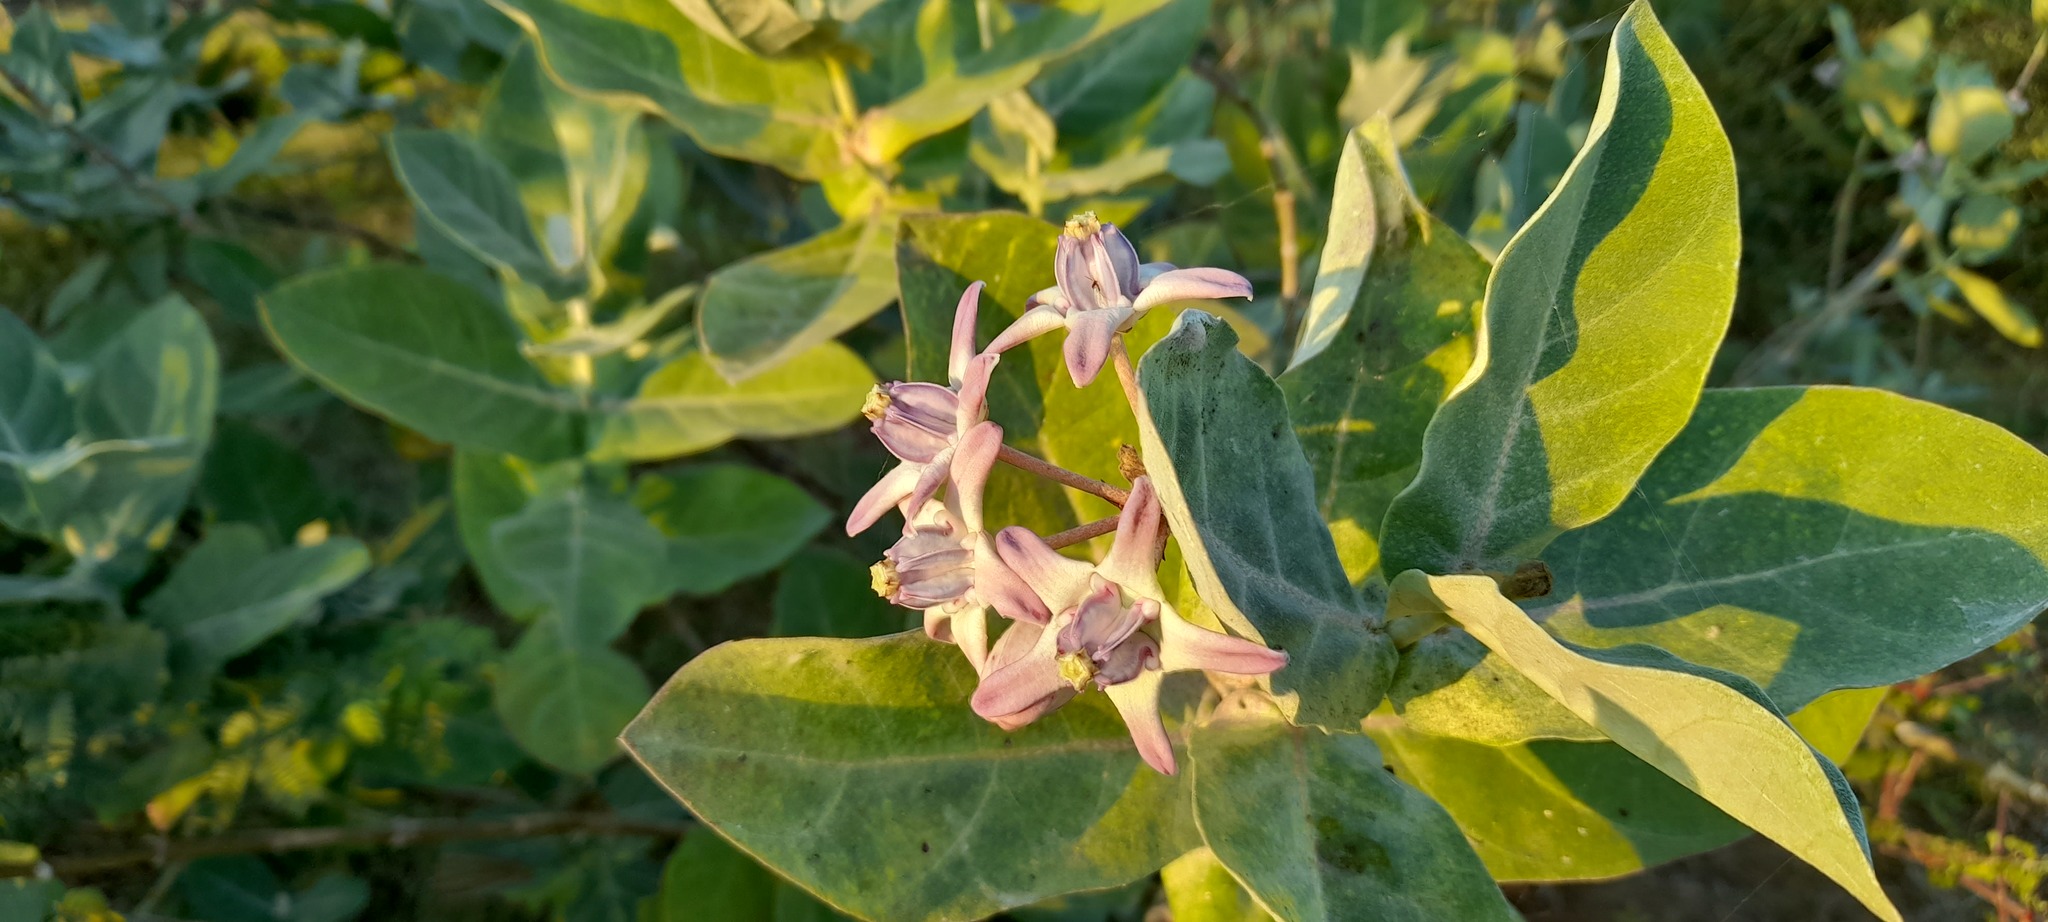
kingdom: Plantae
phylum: Tracheophyta
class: Magnoliopsida
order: Gentianales
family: Apocynaceae
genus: Calotropis
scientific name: Calotropis gigantea
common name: Crown flower
